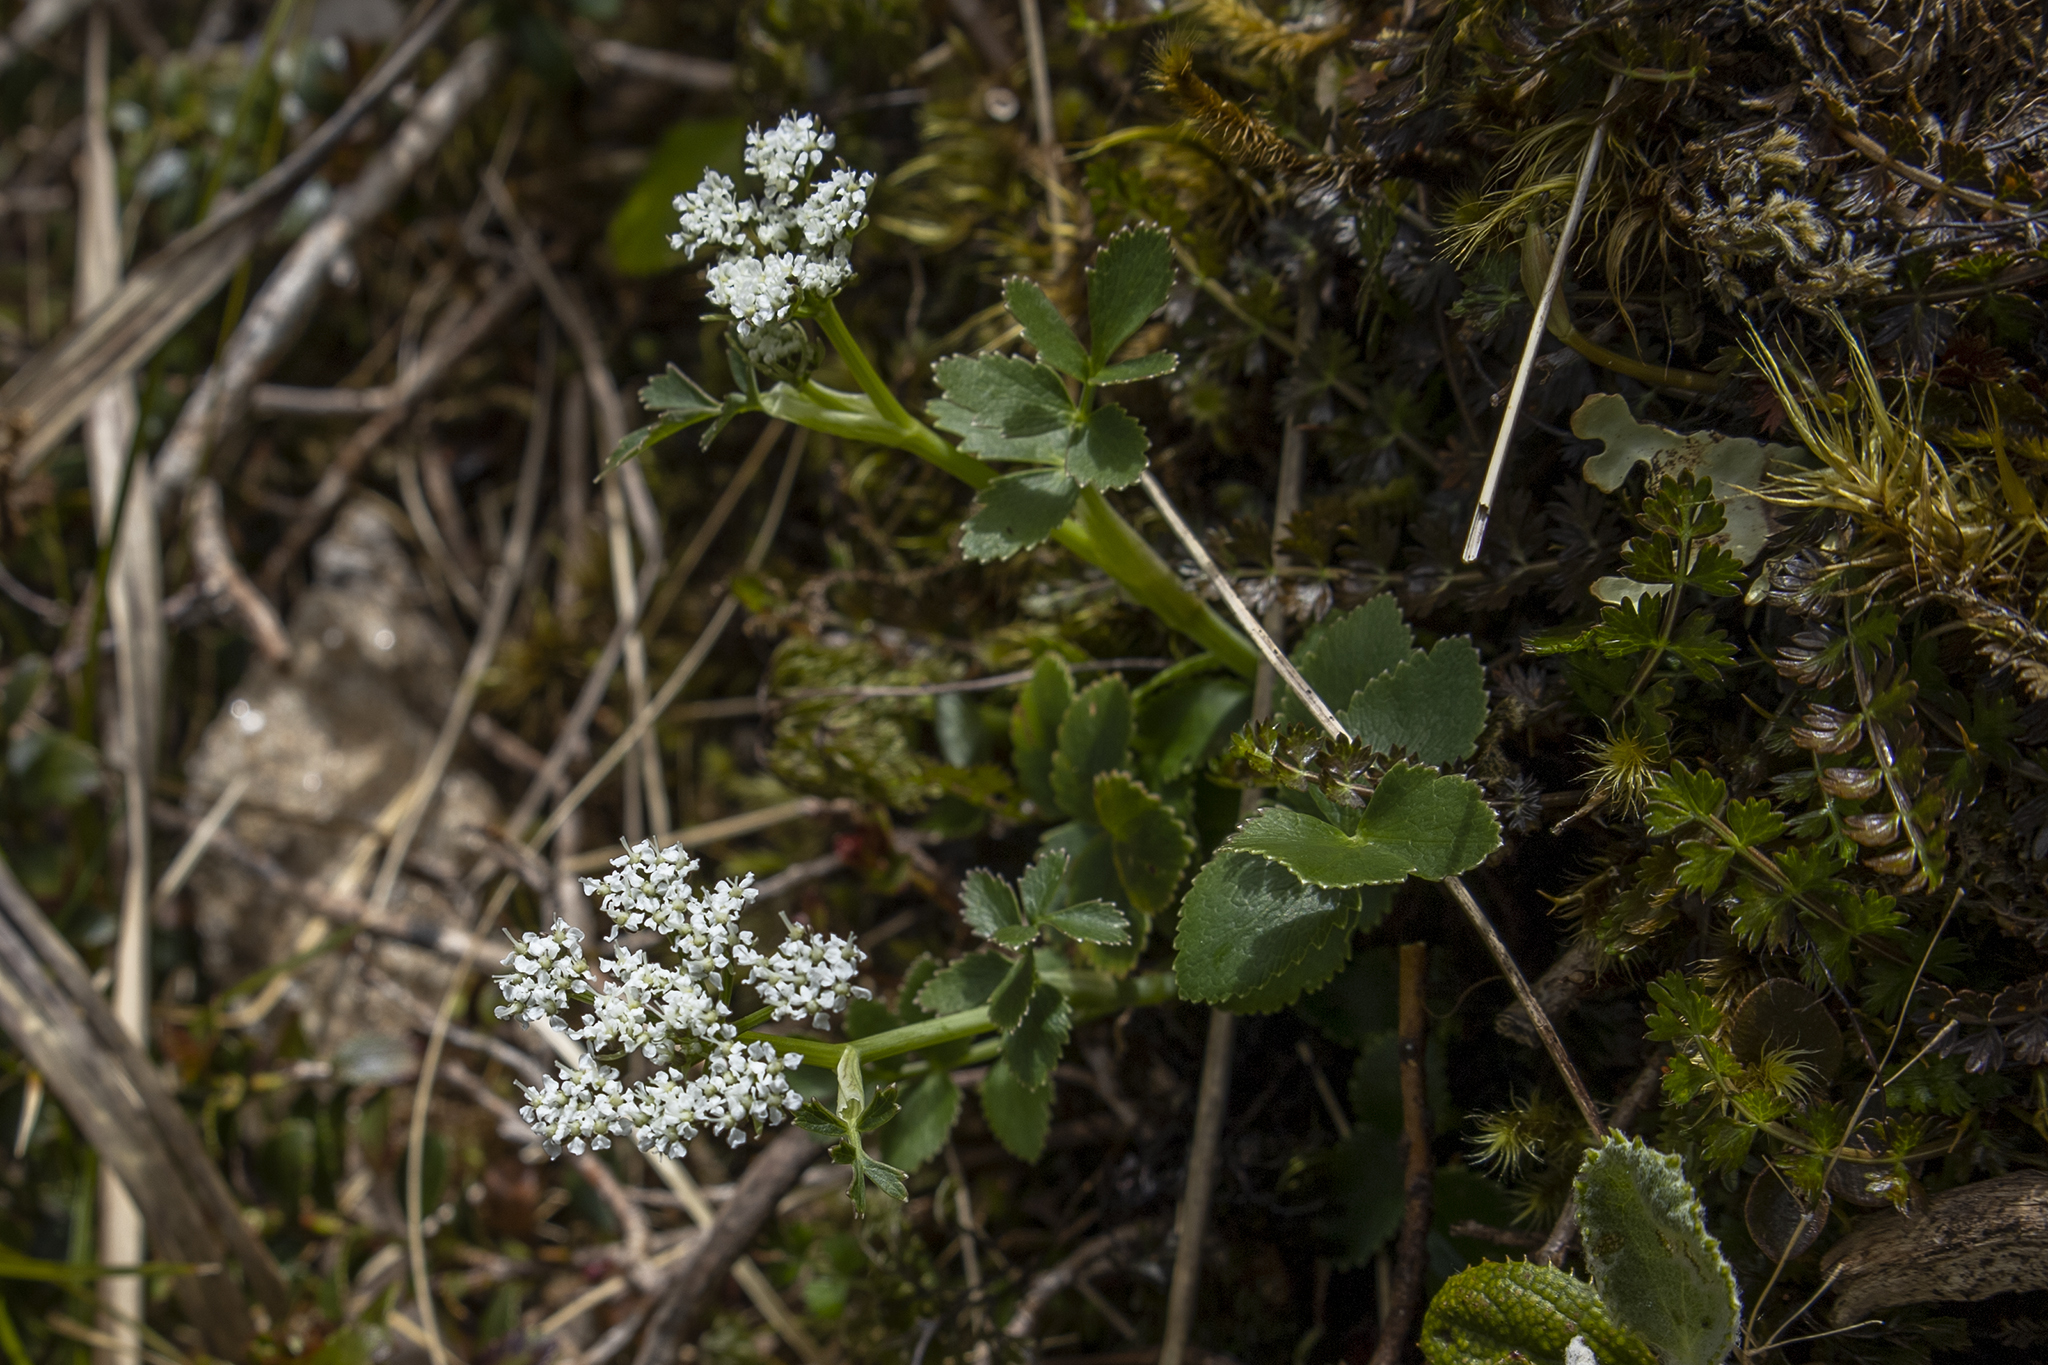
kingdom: Plantae
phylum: Tracheophyta
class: Magnoliopsida
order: Apiales
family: Apiaceae
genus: Gingidia
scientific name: Gingidia montana
